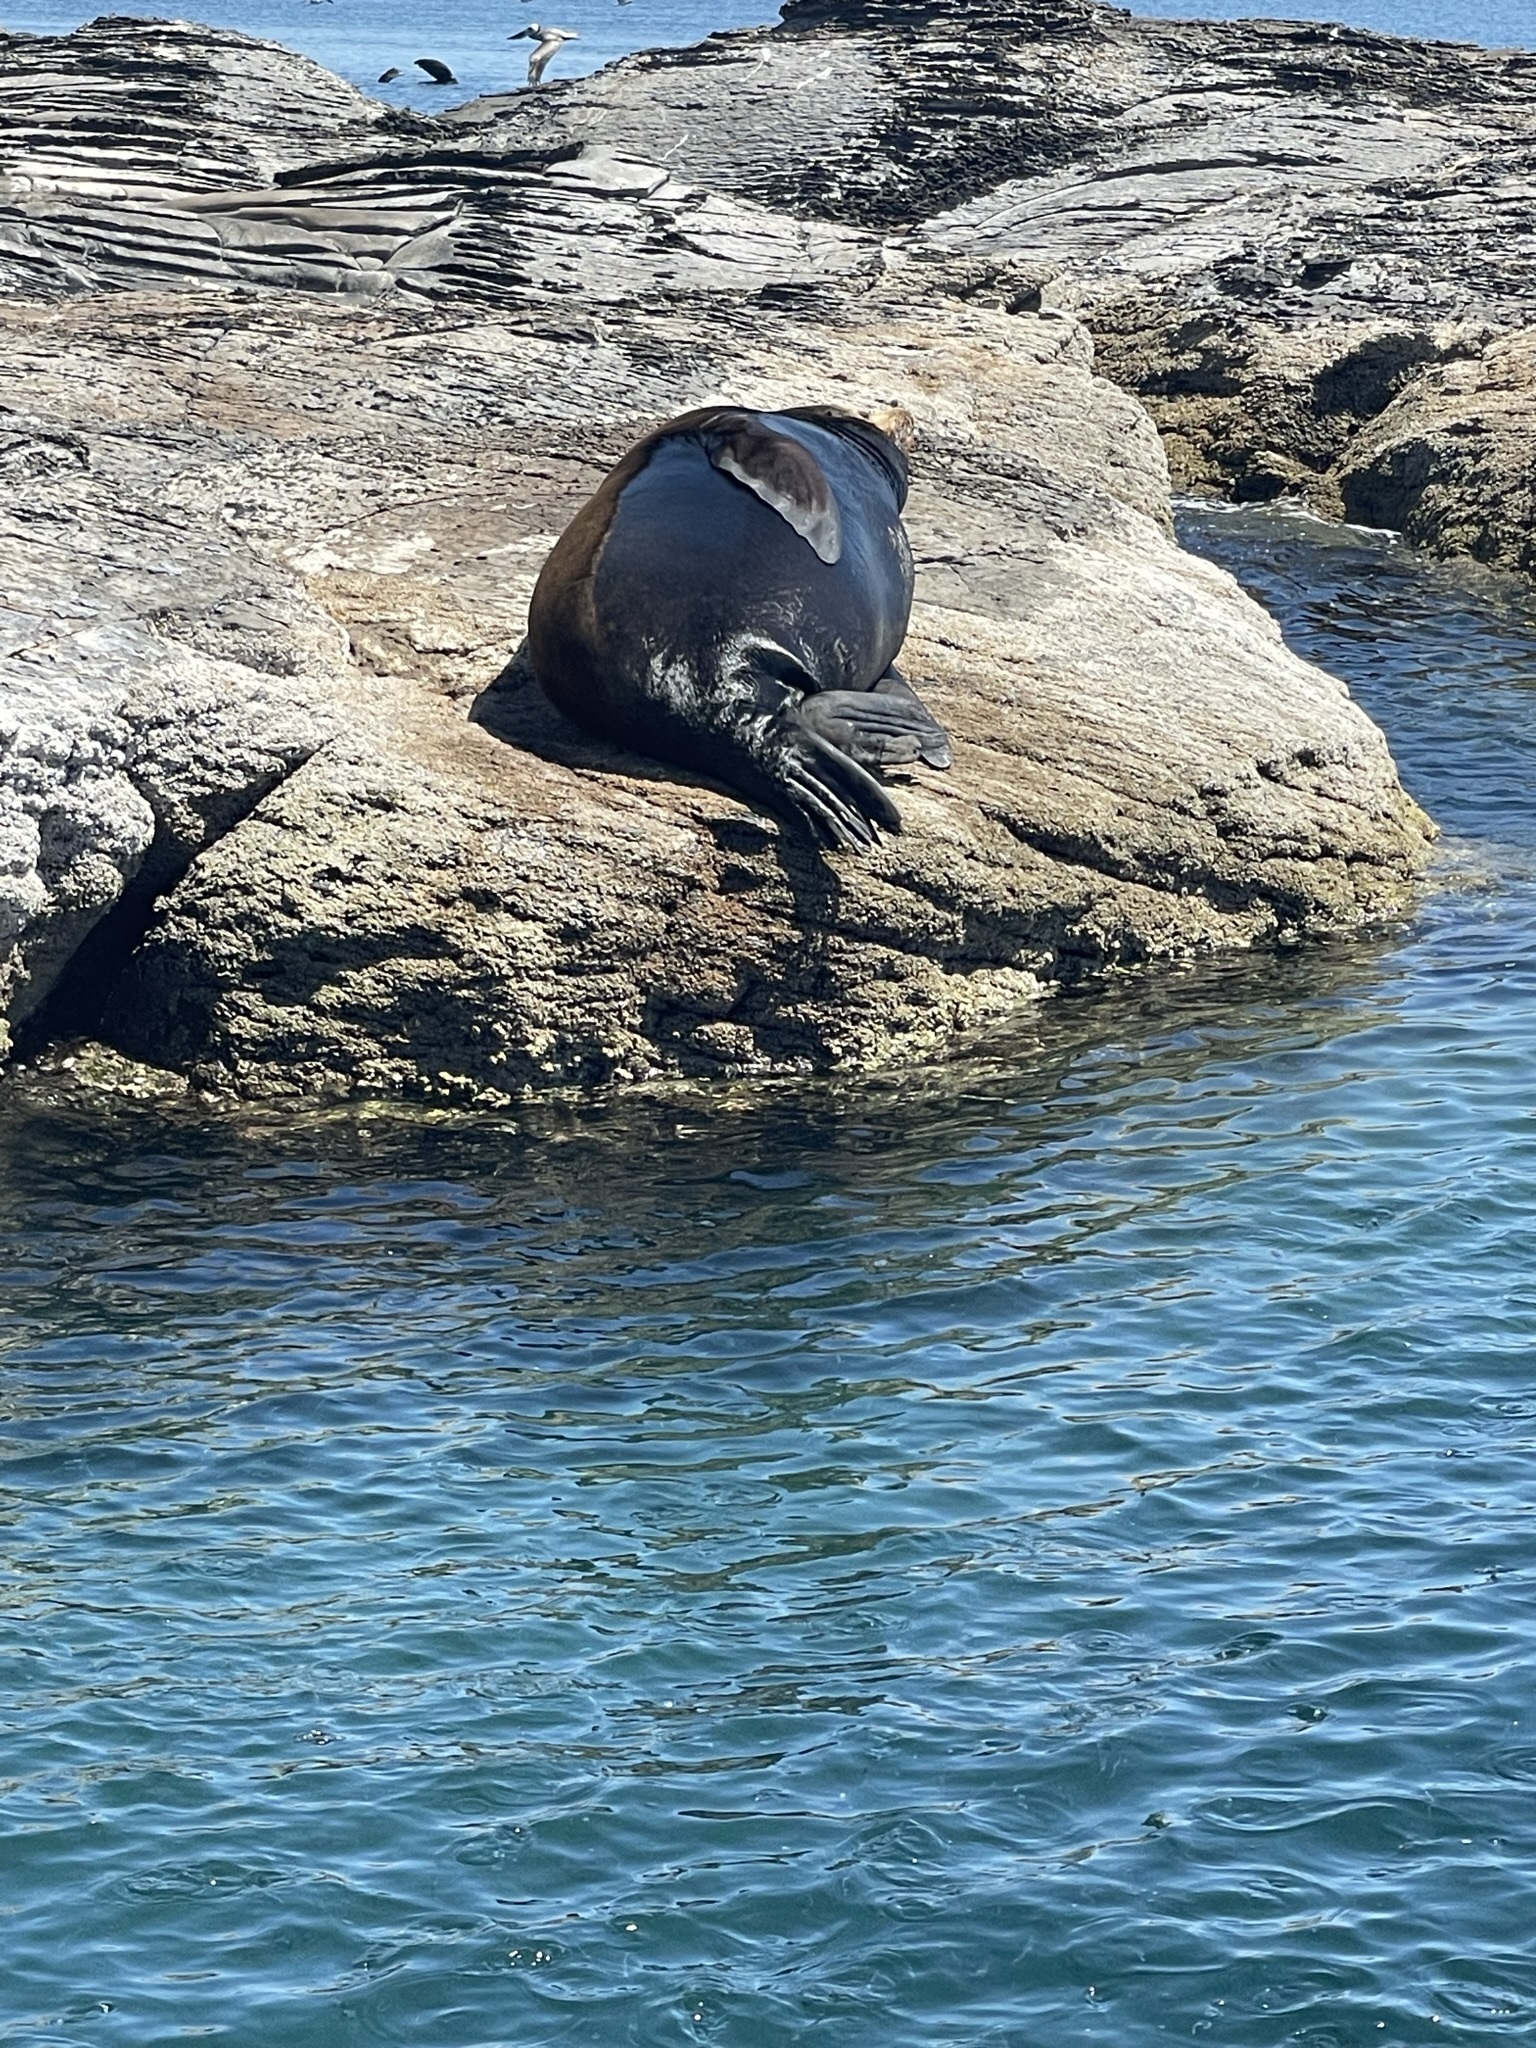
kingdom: Animalia
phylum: Chordata
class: Mammalia
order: Carnivora
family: Otariidae
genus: Zalophus
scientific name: Zalophus californianus
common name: California sea lion
